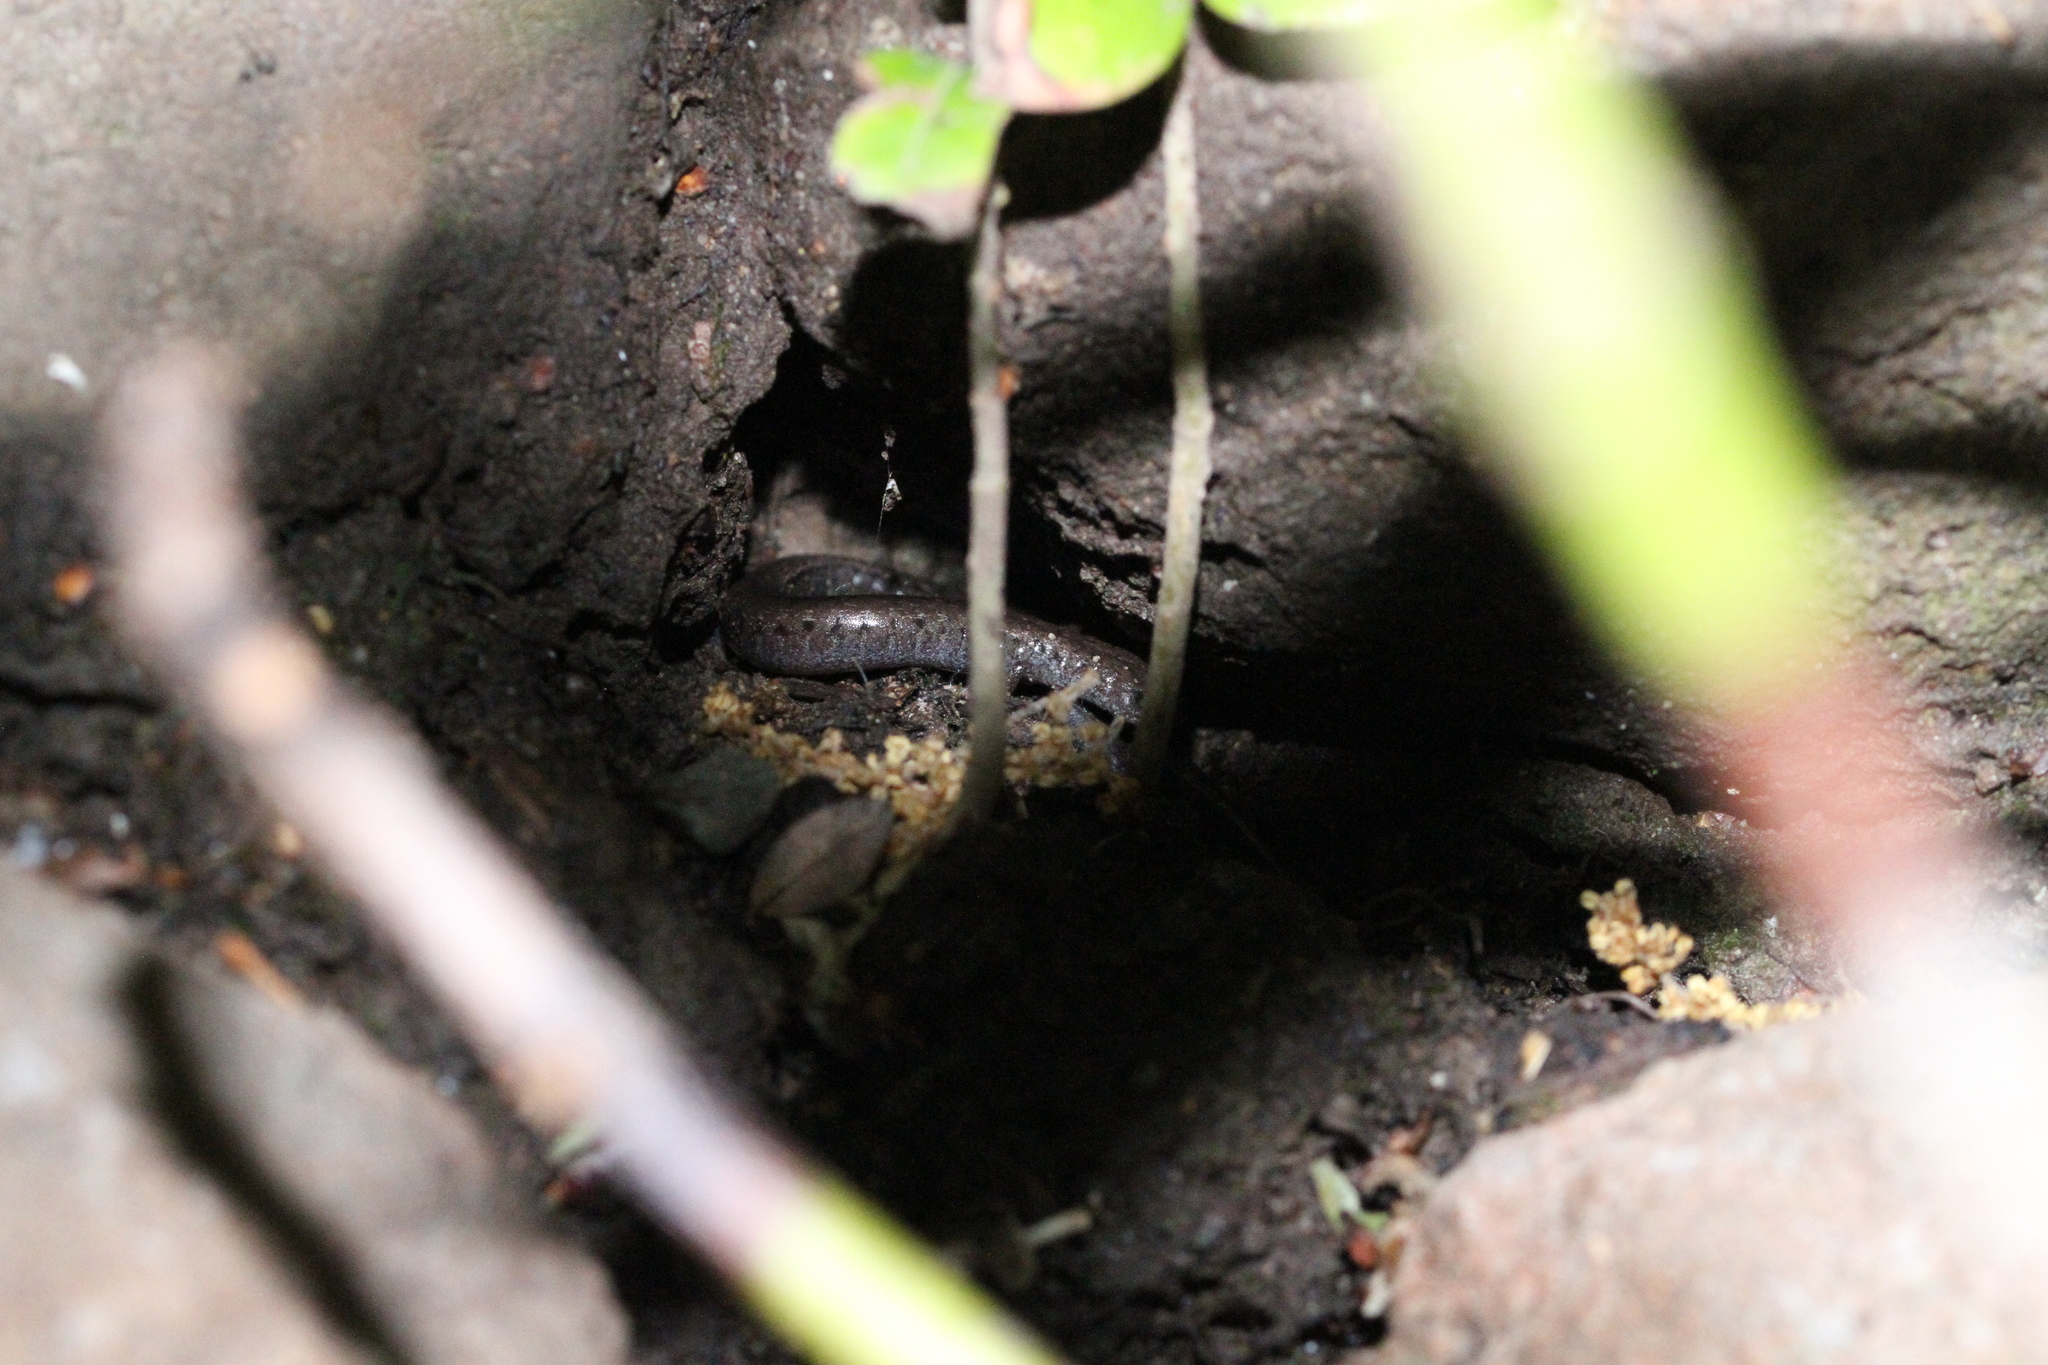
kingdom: Animalia
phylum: Chordata
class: Amphibia
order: Caudata
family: Plethodontidae
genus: Batrachoseps
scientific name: Batrachoseps attenuatus
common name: California slender salamander
